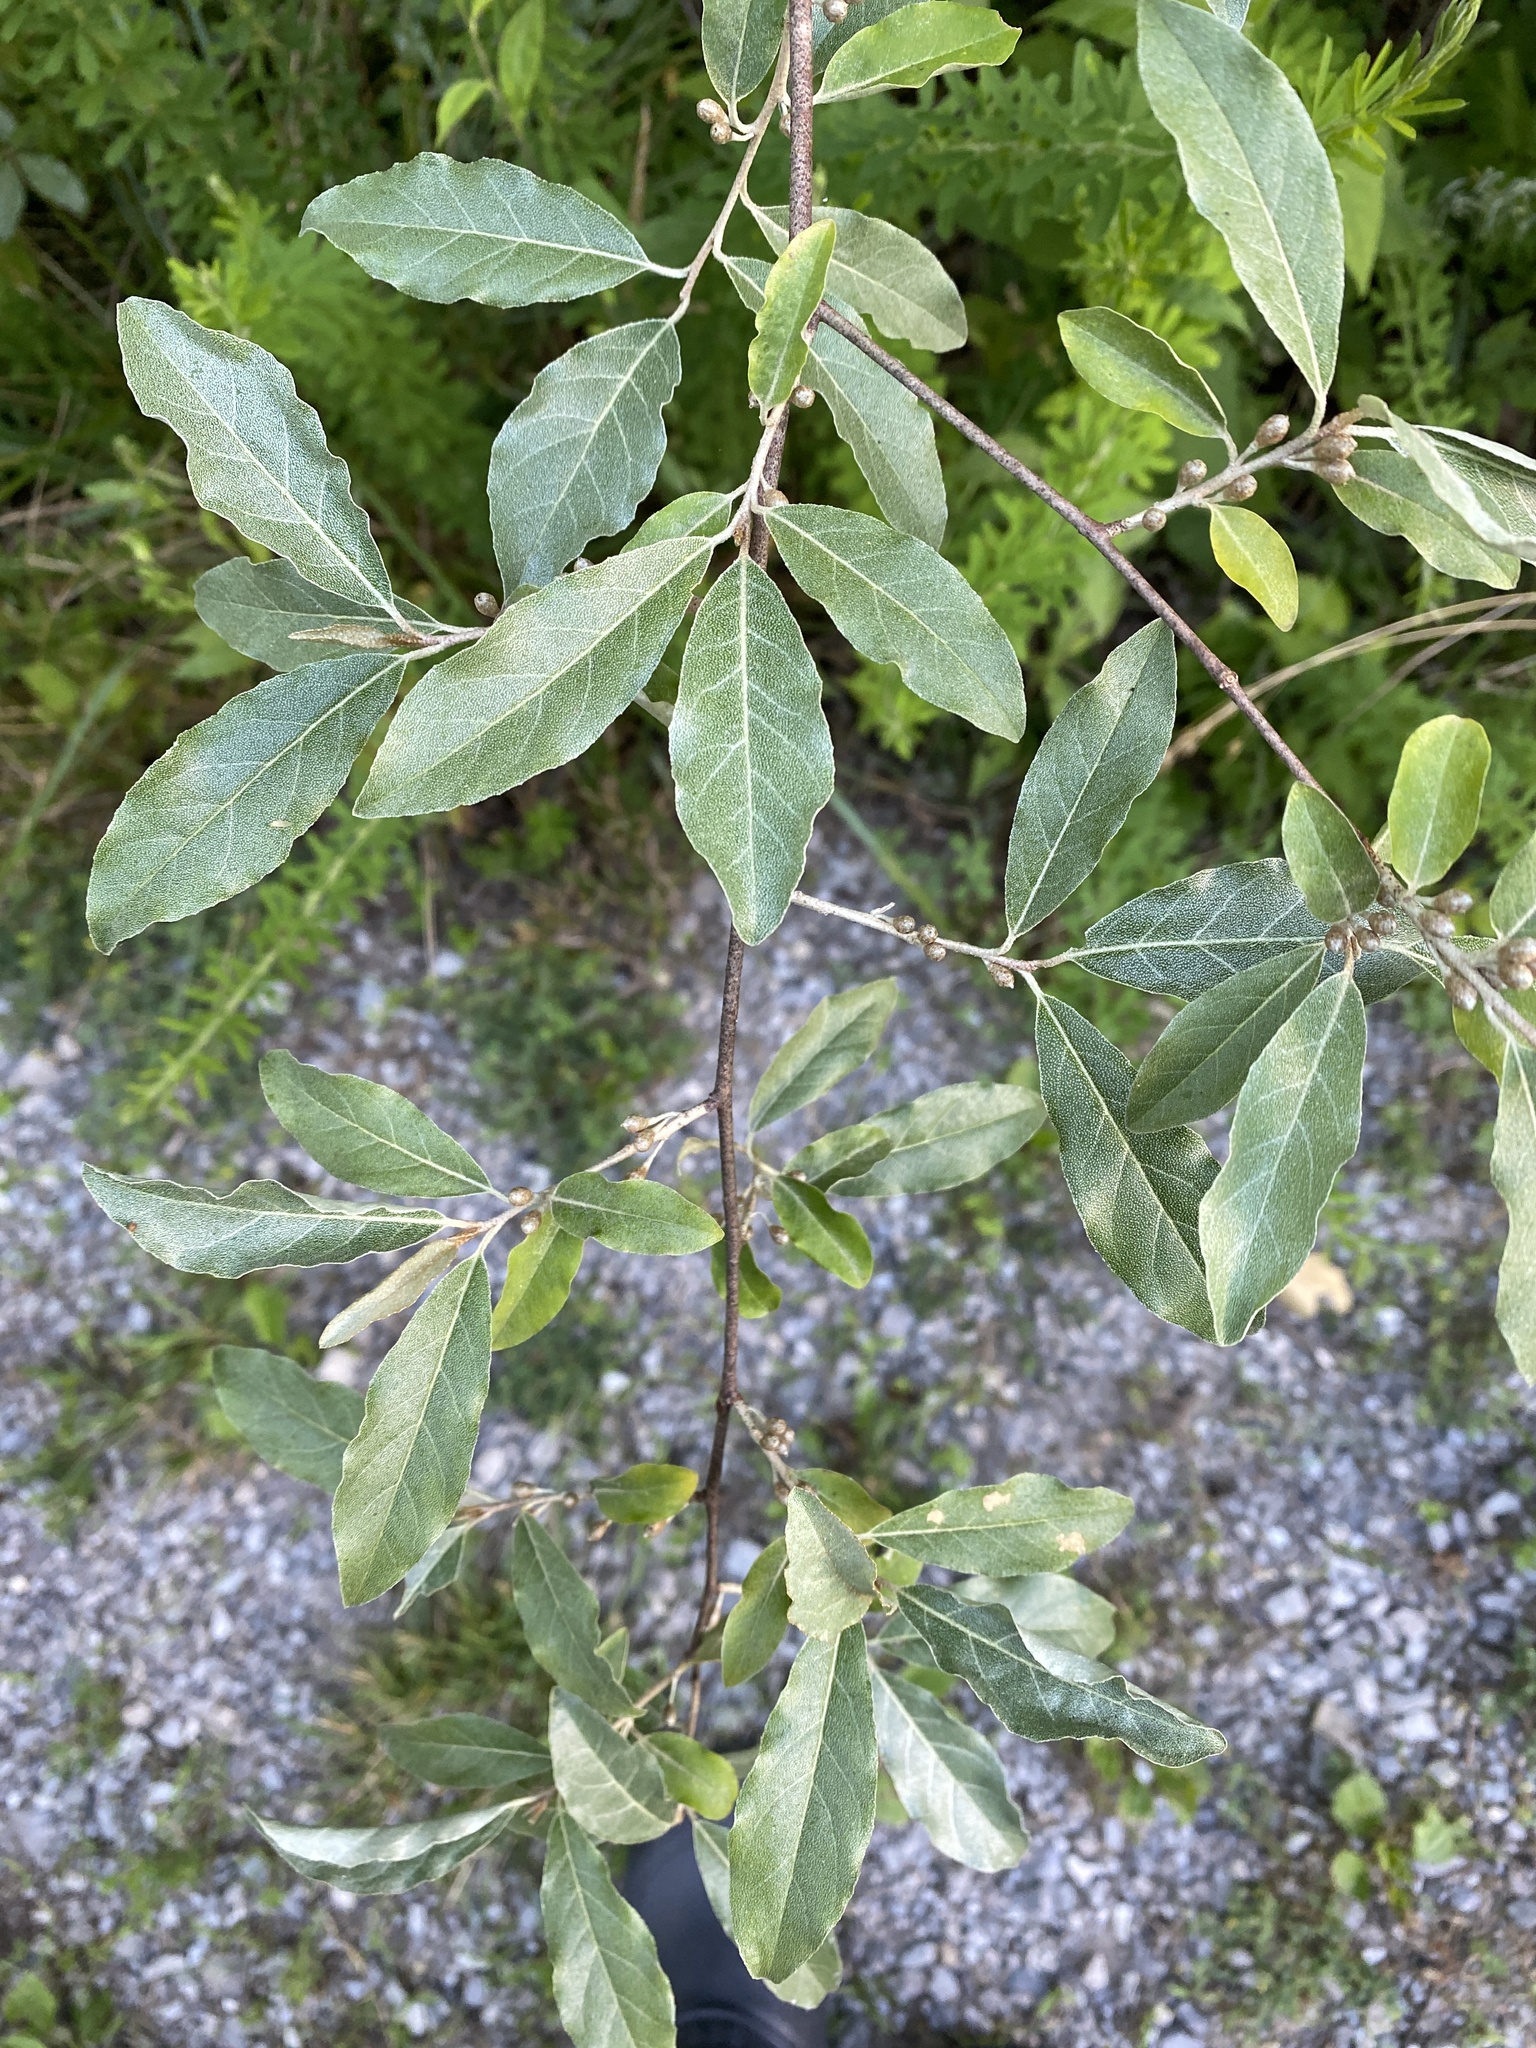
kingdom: Plantae
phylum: Tracheophyta
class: Magnoliopsida
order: Rosales
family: Elaeagnaceae
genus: Elaeagnus
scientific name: Elaeagnus umbellata
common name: Autumn olive
